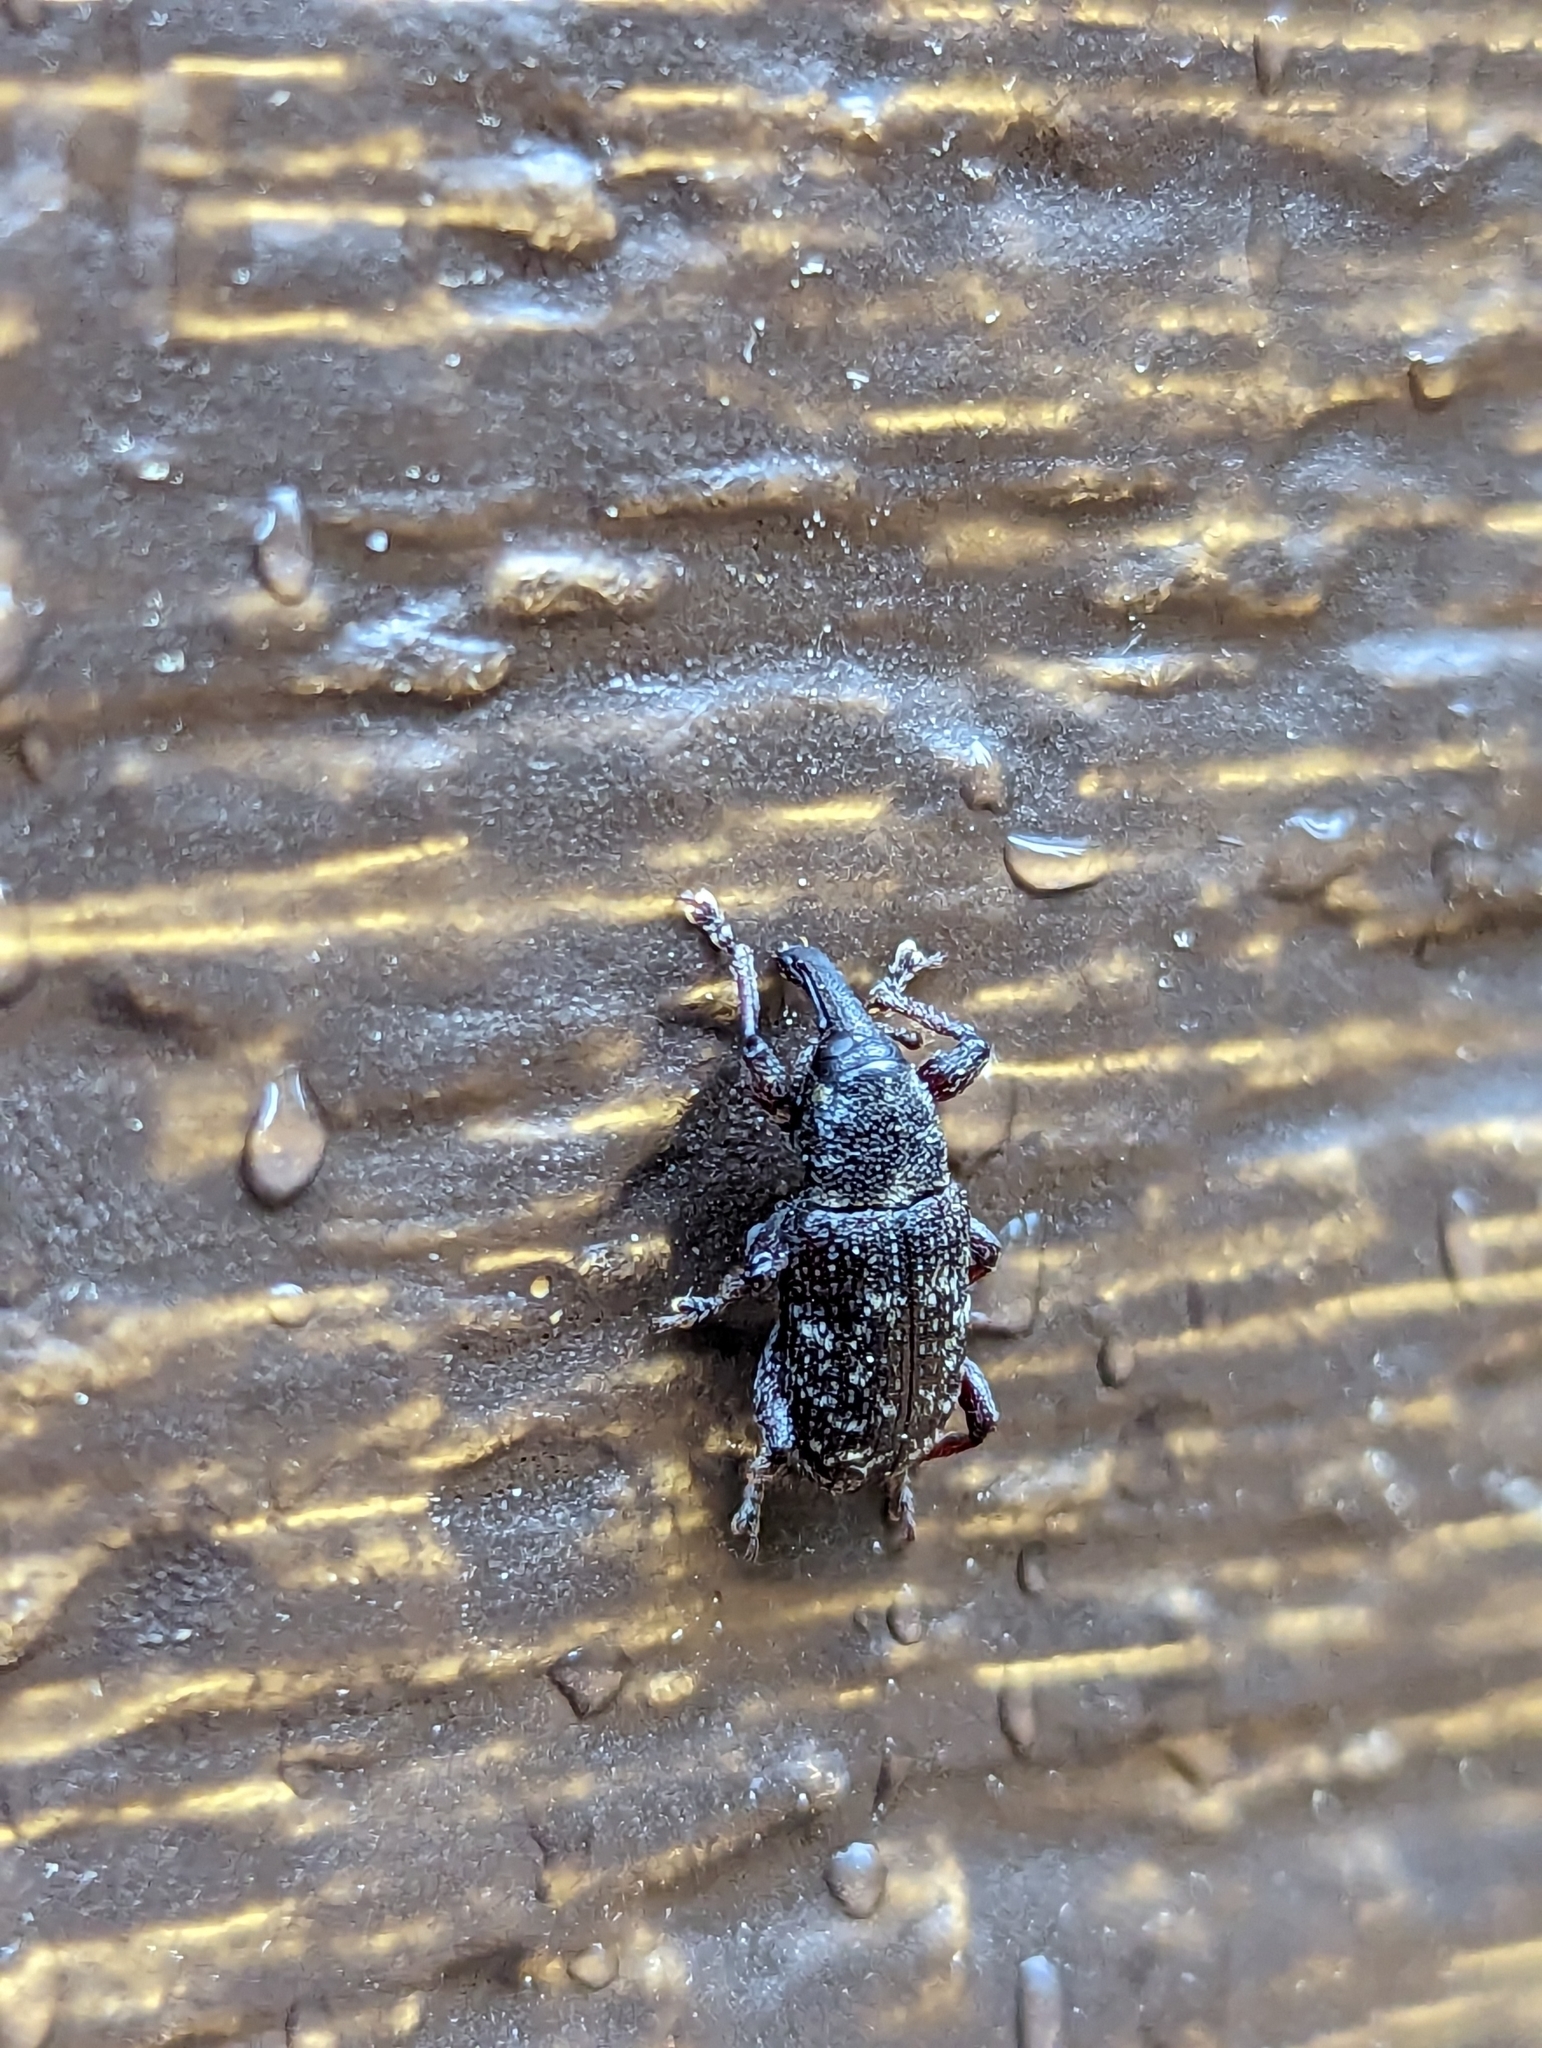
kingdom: Animalia
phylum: Arthropoda
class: Insecta
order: Coleoptera
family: Curculionidae
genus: Hylobius
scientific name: Hylobius congener
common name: Seedling debarking weevil
